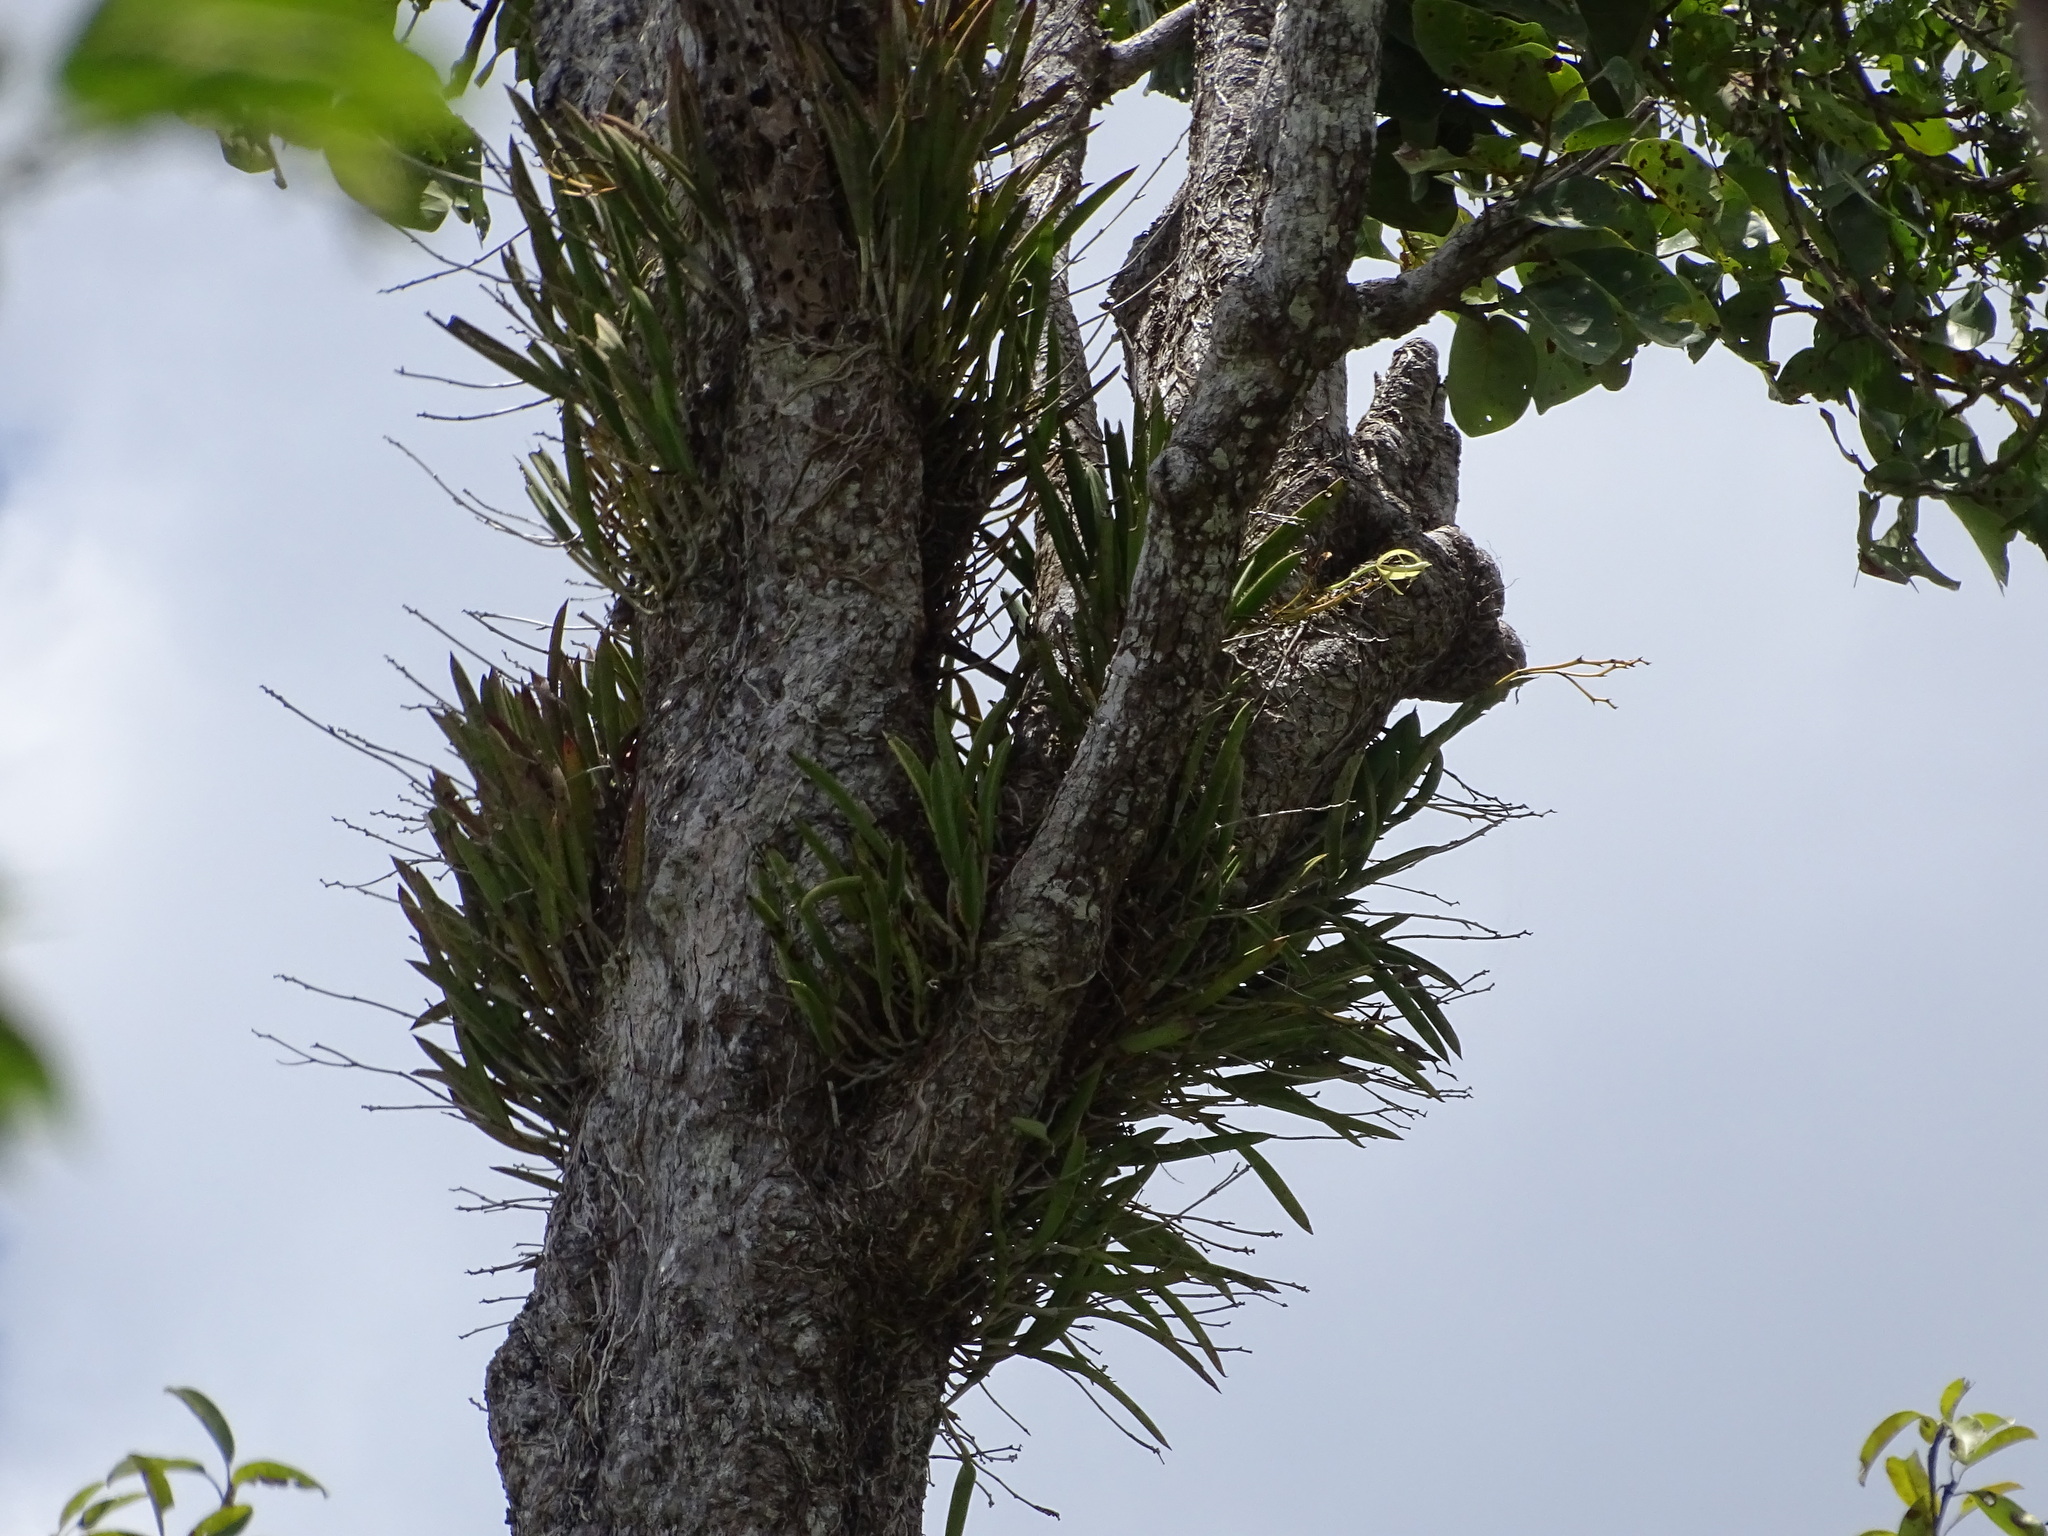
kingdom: Plantae
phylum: Tracheophyta
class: Liliopsida
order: Asparagales
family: Orchidaceae
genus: Brassavola
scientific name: Brassavola nodosa
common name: Lady of the night
